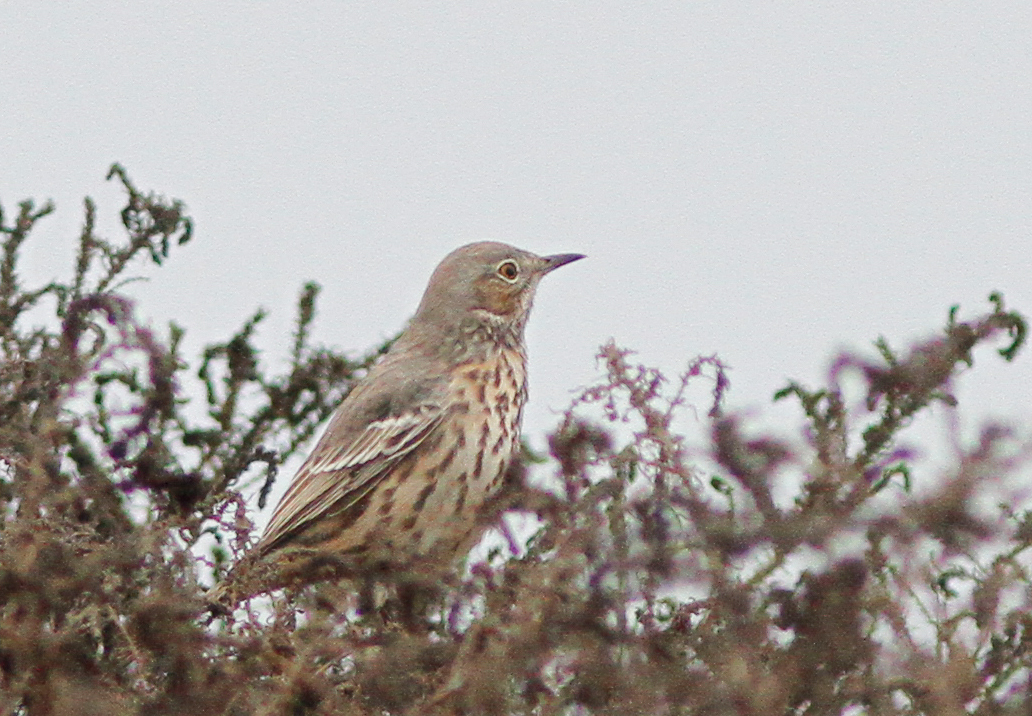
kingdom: Animalia
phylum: Chordata
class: Aves
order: Passeriformes
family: Mimidae
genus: Oreoscoptes
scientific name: Oreoscoptes montanus
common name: Sage thrasher
